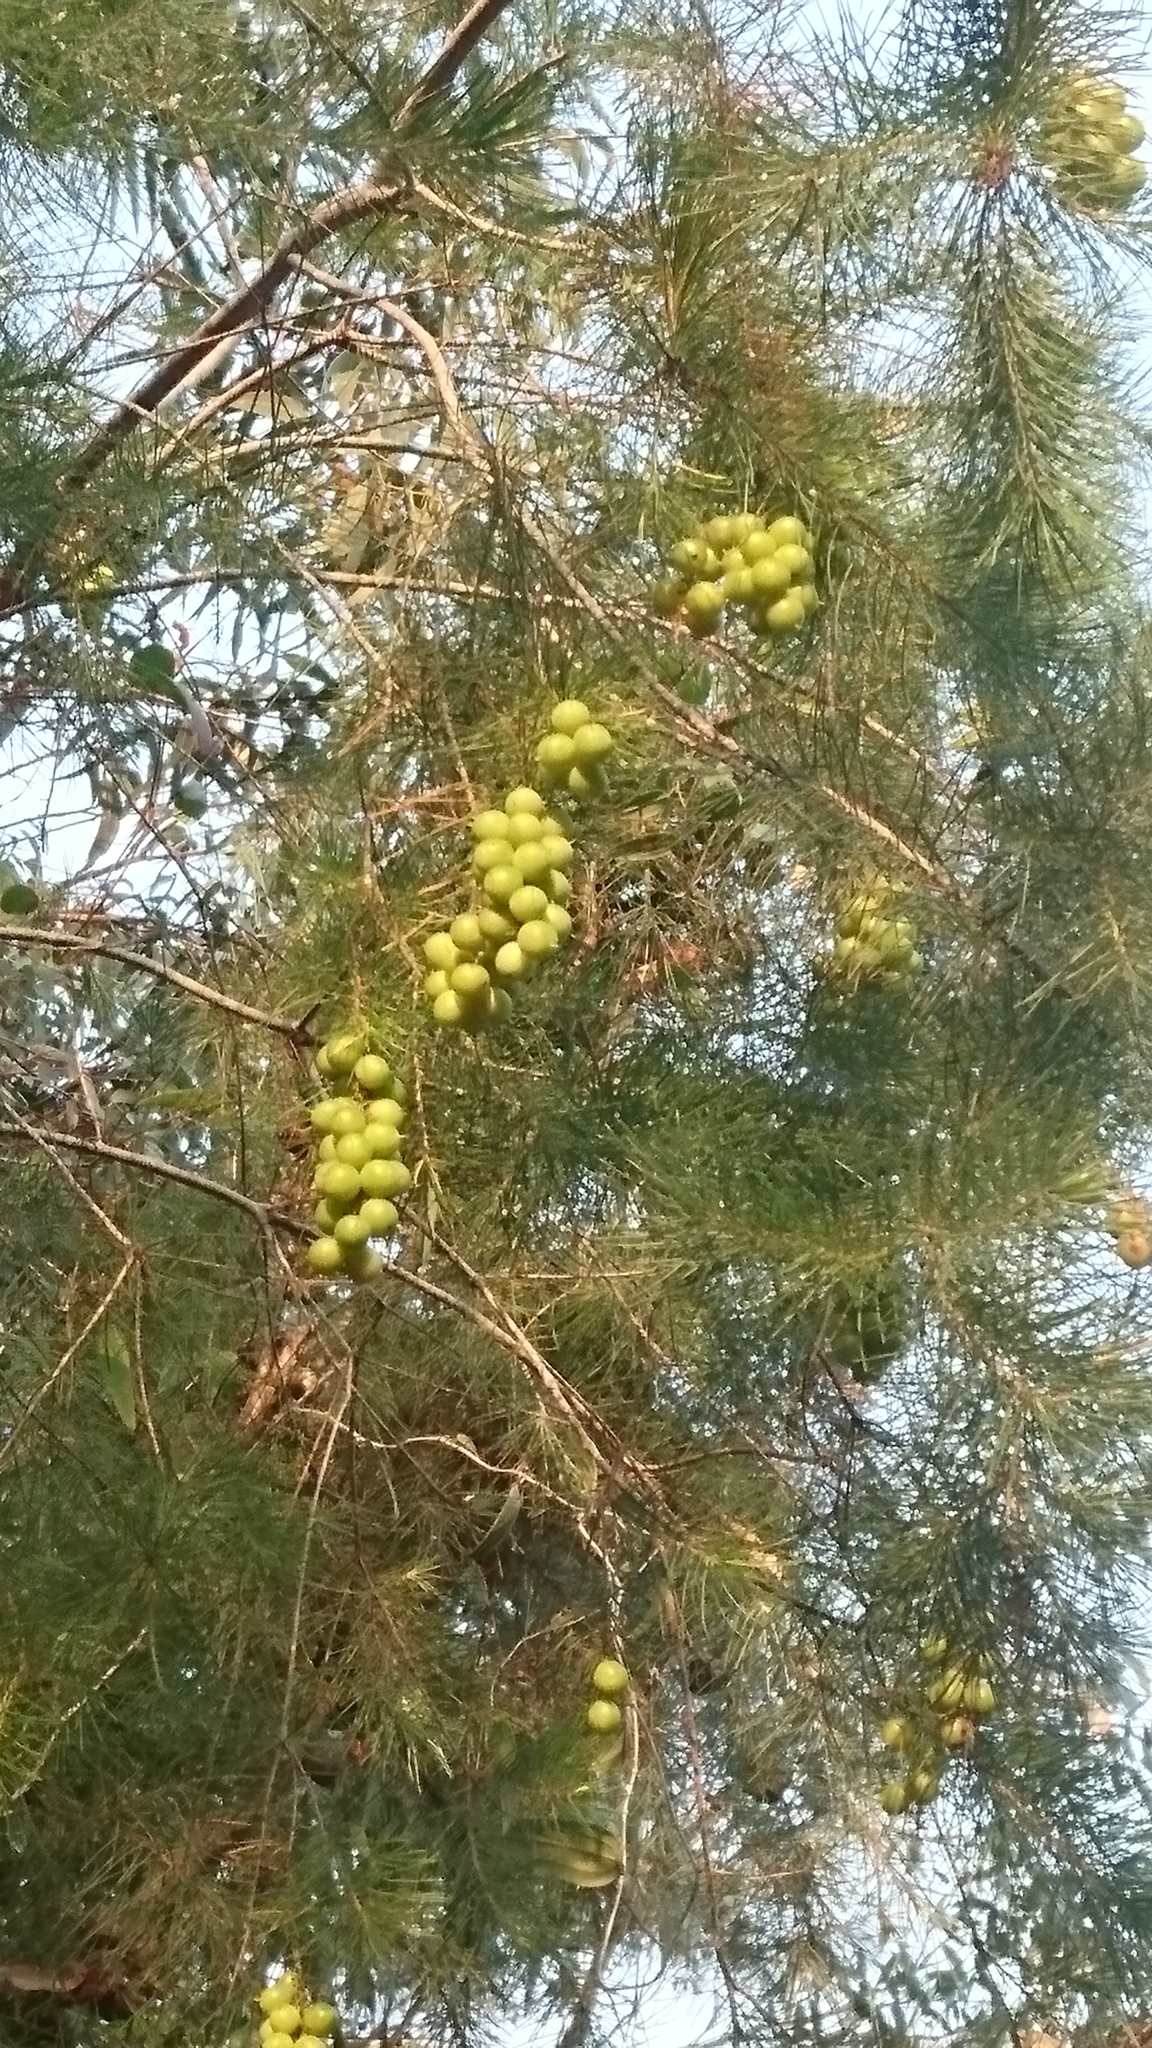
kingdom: Plantae
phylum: Tracheophyta
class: Magnoliopsida
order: Proteales
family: Proteaceae
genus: Persoonia
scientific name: Persoonia pinifolia
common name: Pine-leaf geebung
